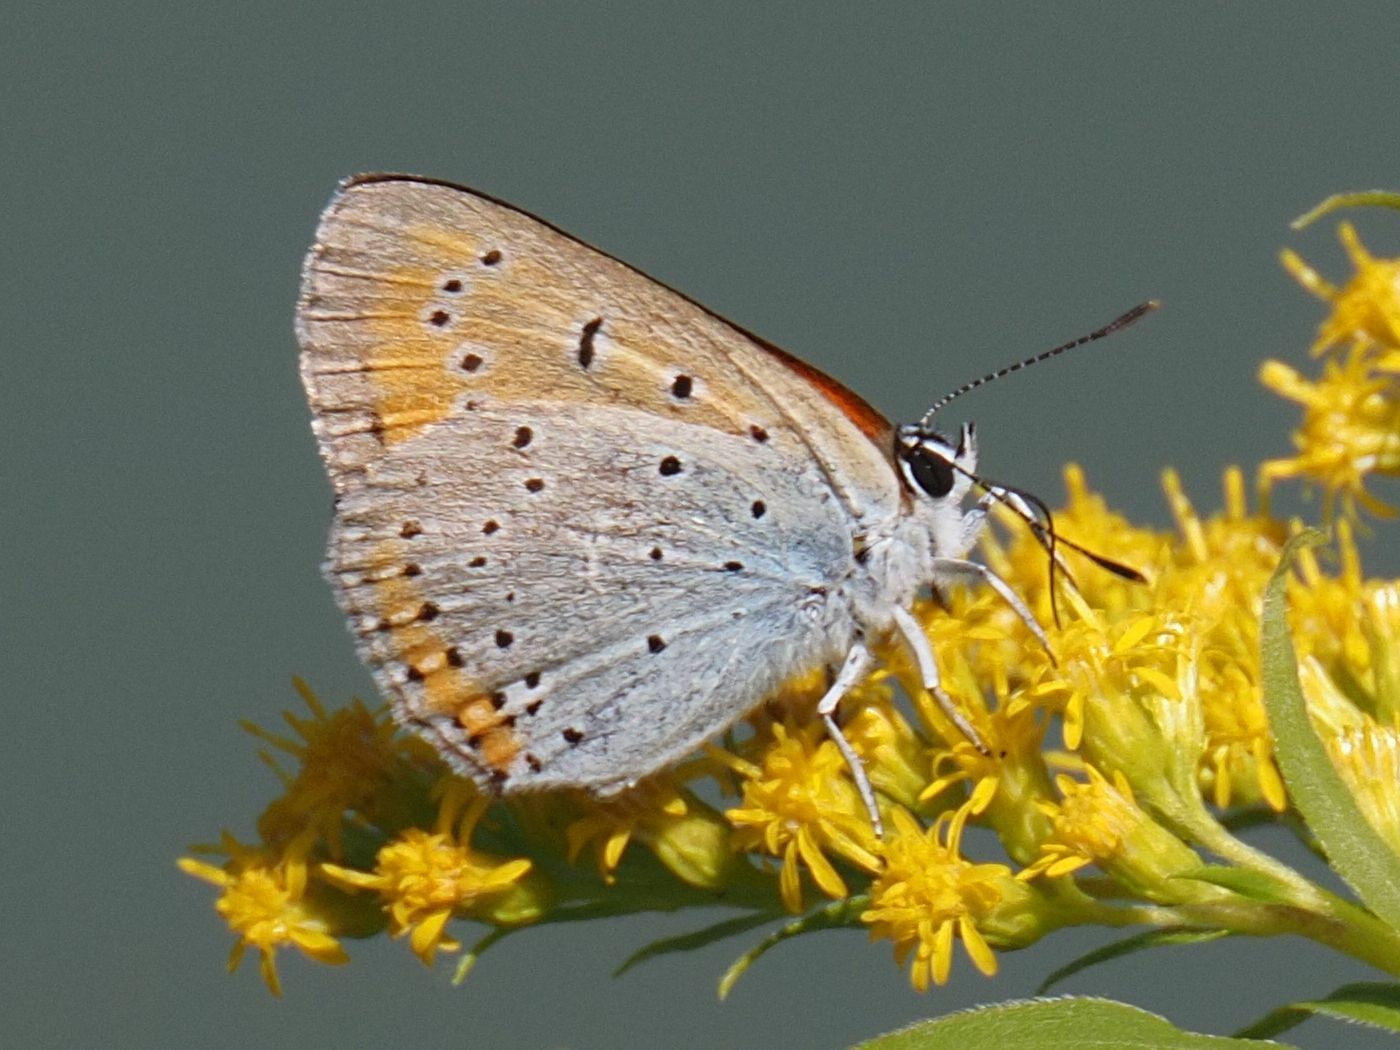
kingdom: Animalia
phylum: Arthropoda
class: Insecta
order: Lepidoptera
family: Lycaenidae
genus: Lycaena
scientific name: Lycaena dispar
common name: Large copper
